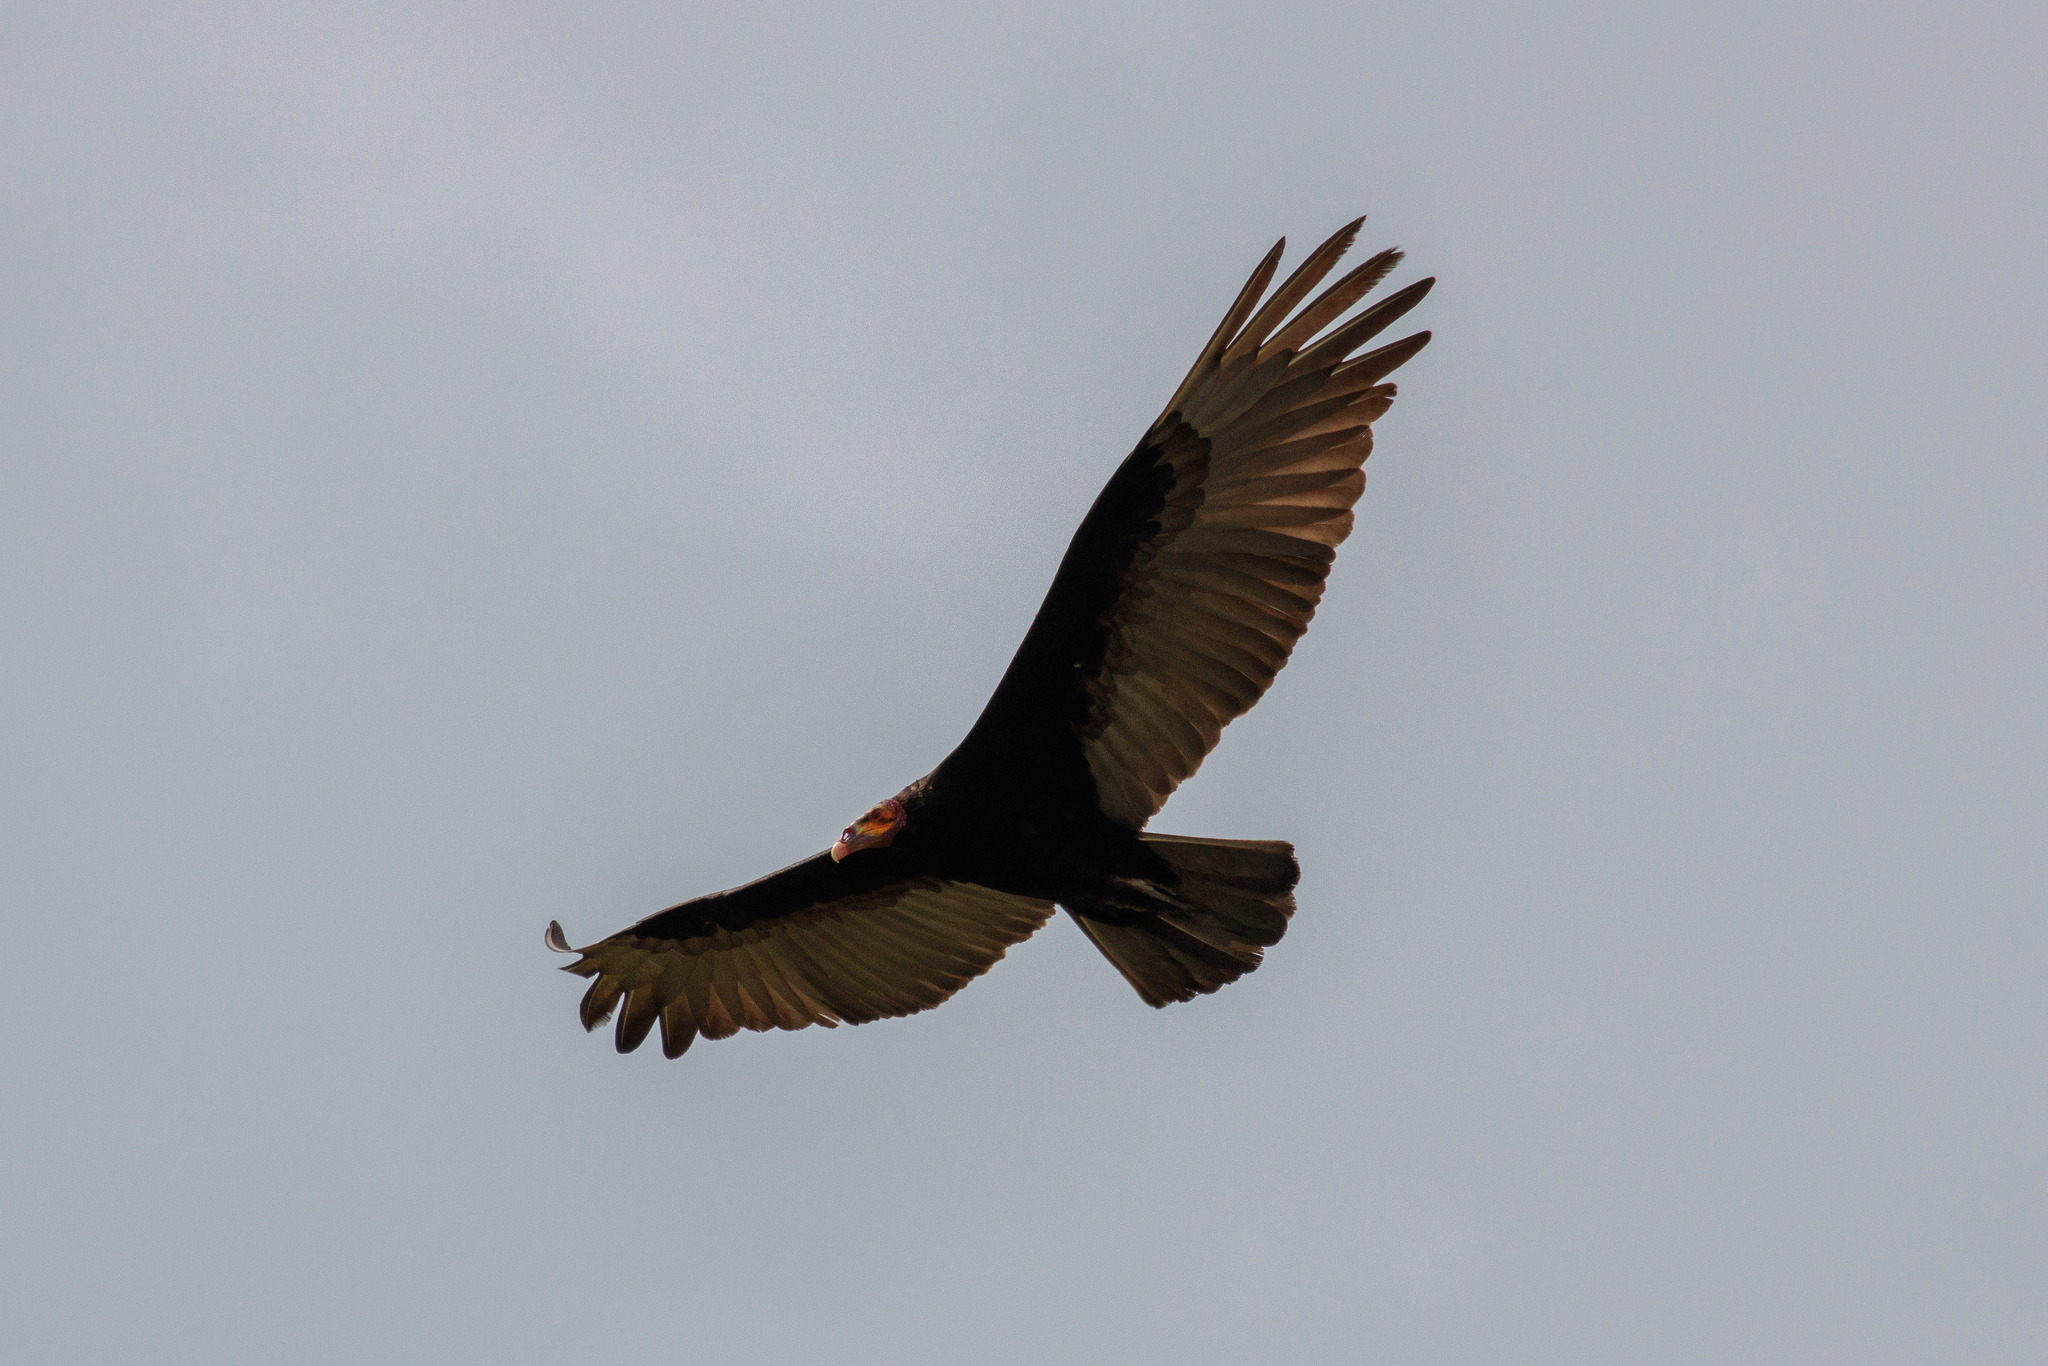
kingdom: Animalia
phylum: Chordata
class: Aves
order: Accipitriformes
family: Cathartidae
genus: Cathartes
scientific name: Cathartes burrovianus
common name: Lesser yellow-headed vulture
